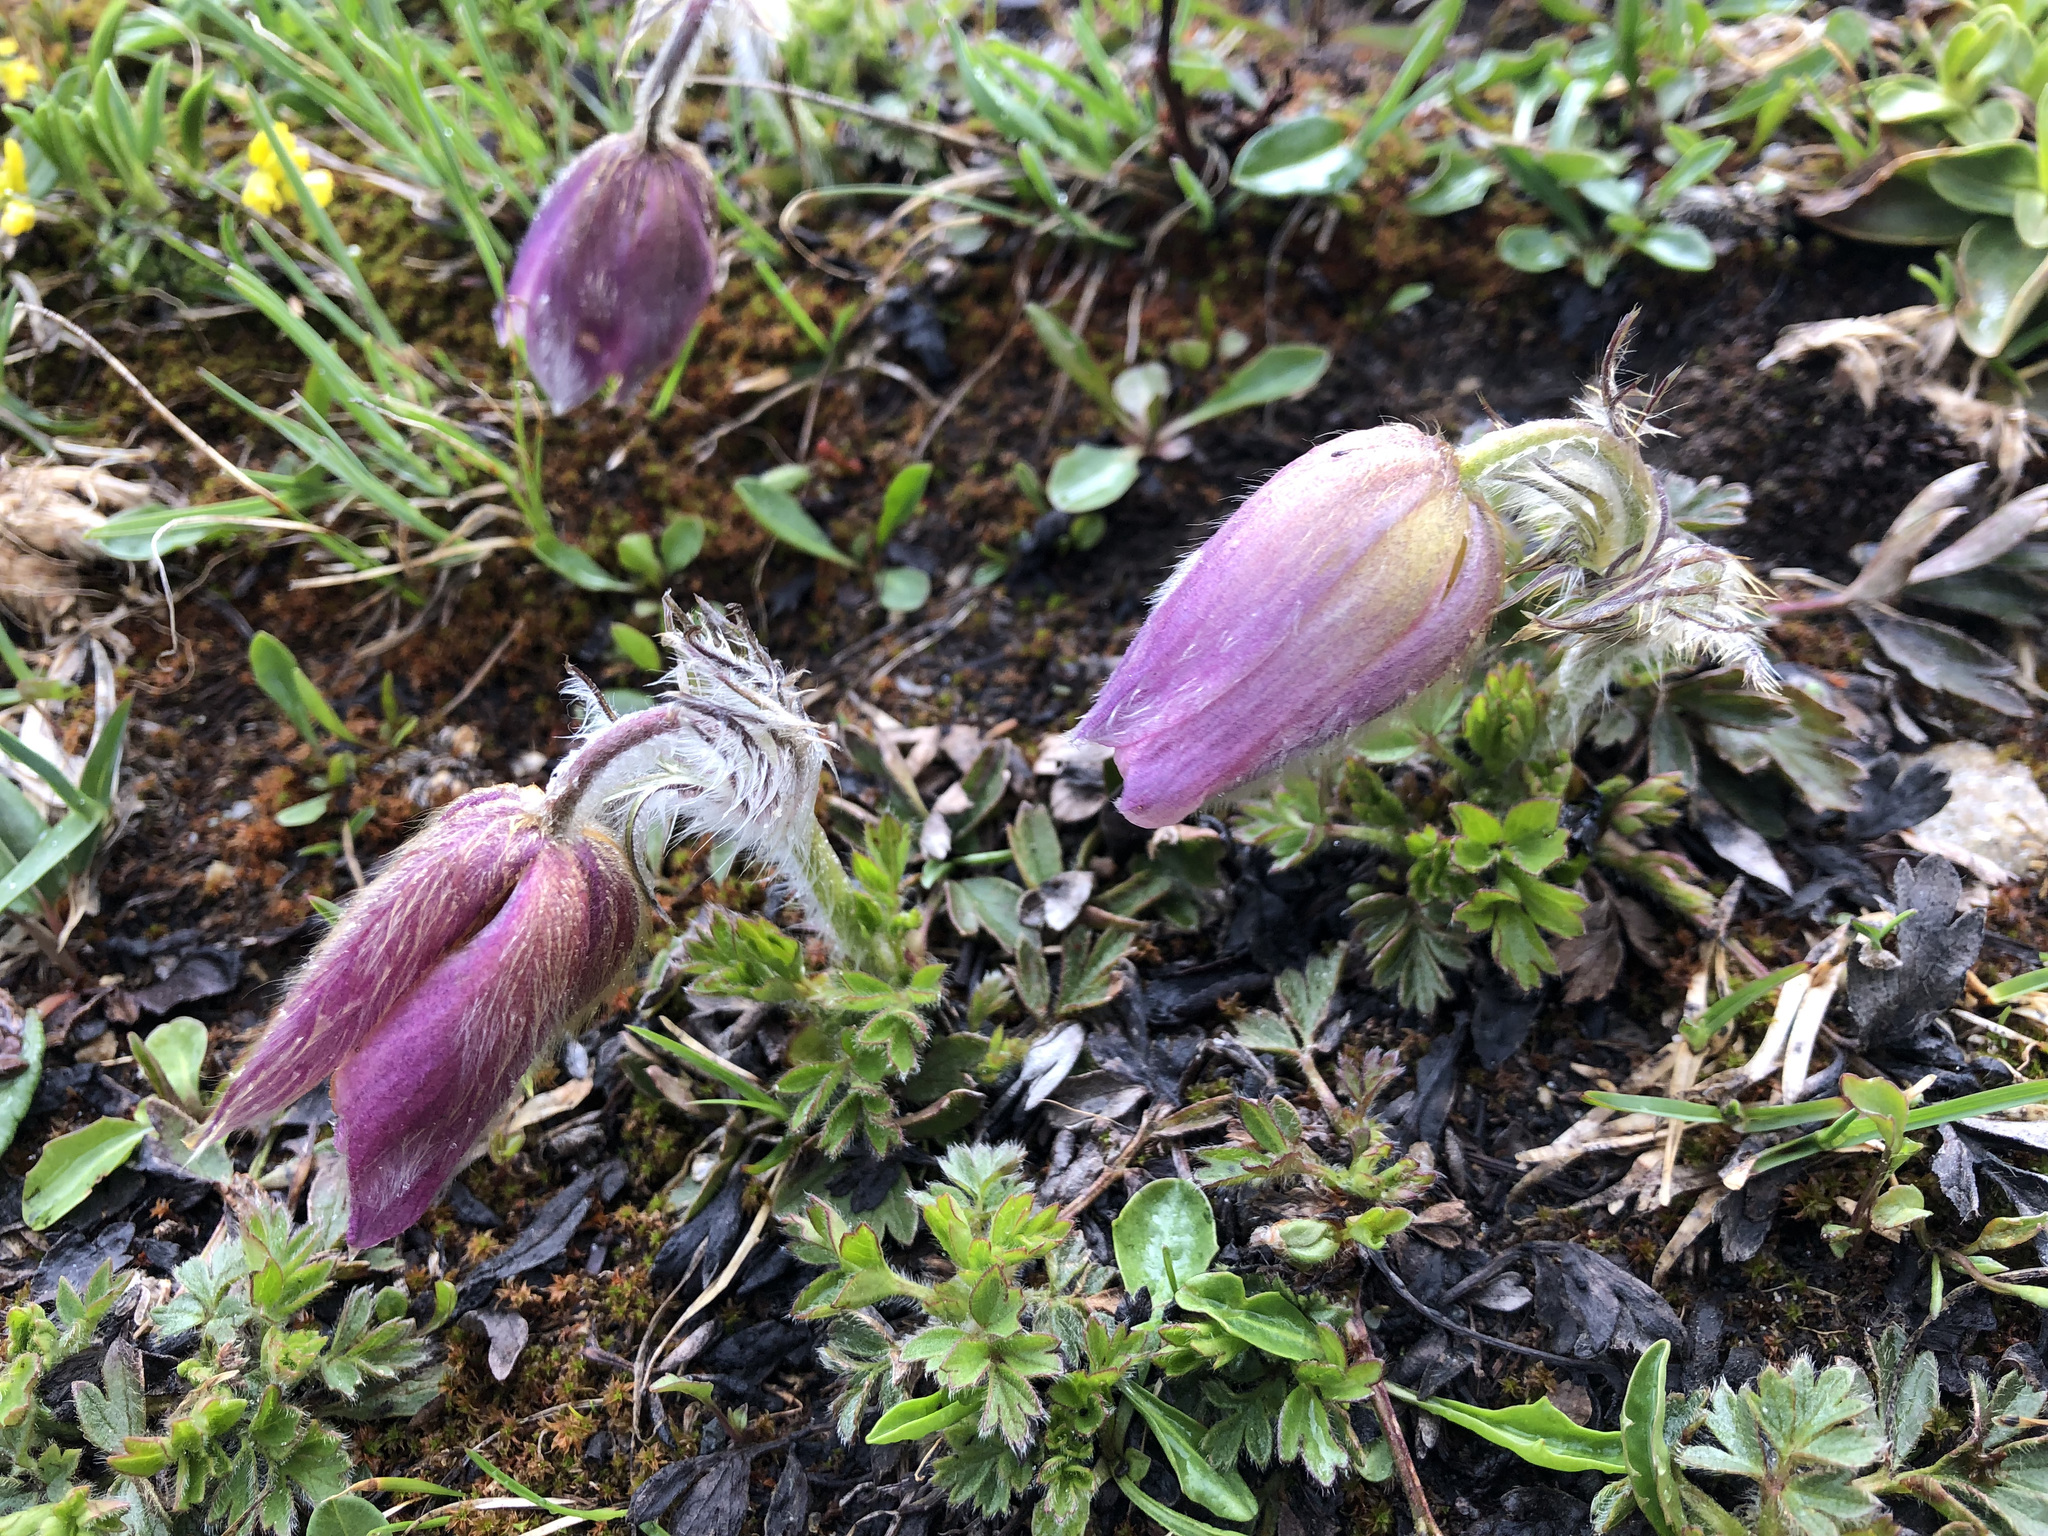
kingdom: Plantae
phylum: Tracheophyta
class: Magnoliopsida
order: Ranunculales
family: Ranunculaceae
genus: Pulsatilla
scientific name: Pulsatilla vernalis
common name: Spring pasque flower
